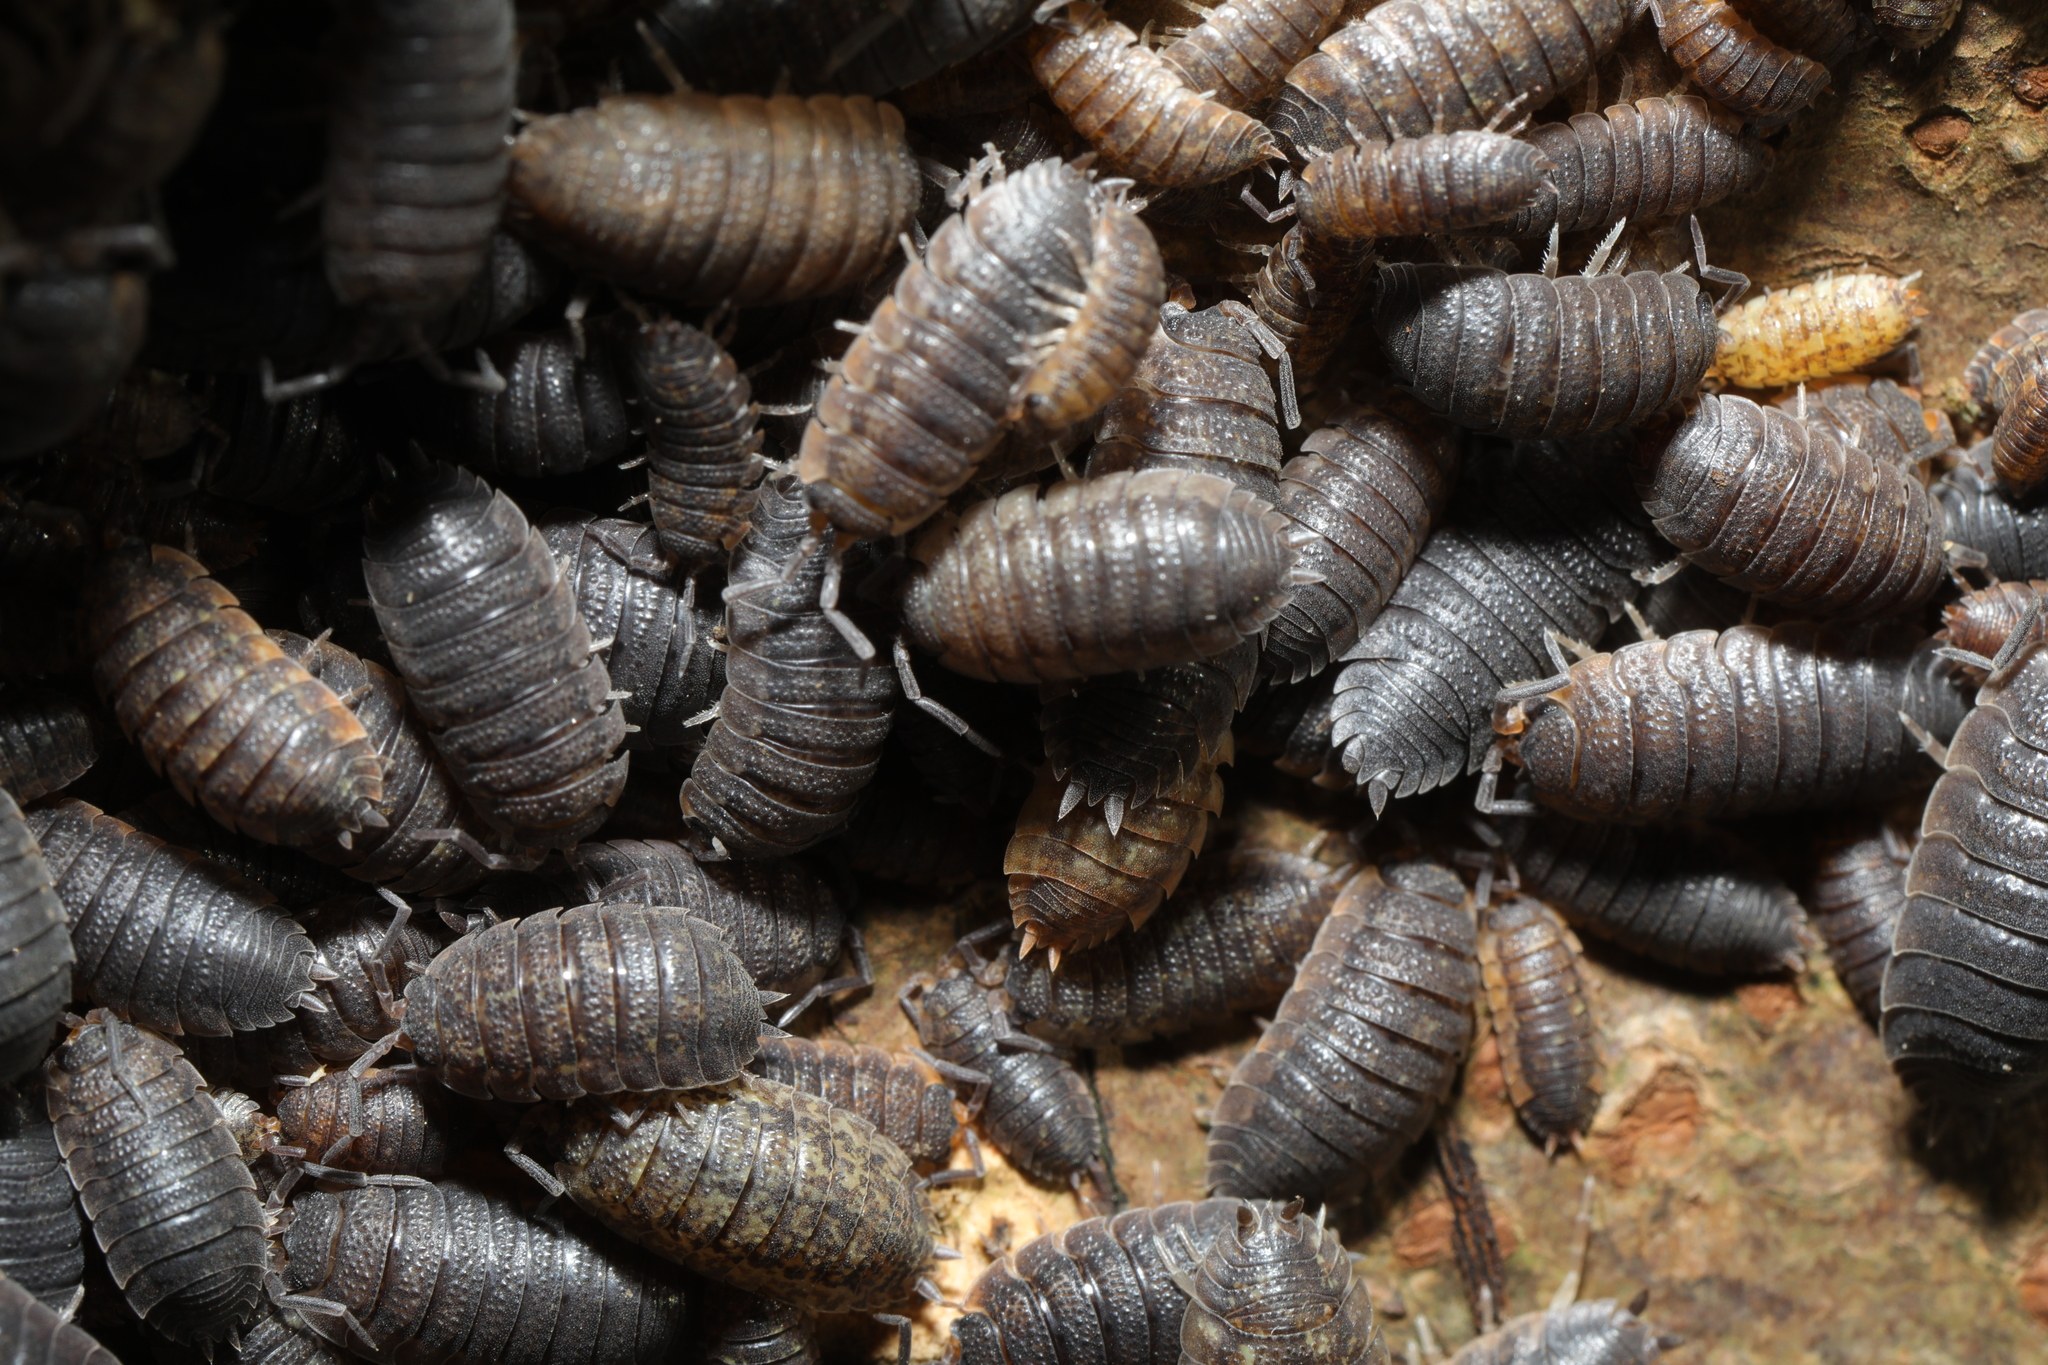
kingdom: Animalia
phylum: Arthropoda
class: Malacostraca
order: Isopoda
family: Porcellionidae
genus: Porcellio
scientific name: Porcellio scaber
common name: Common rough woodlouse
